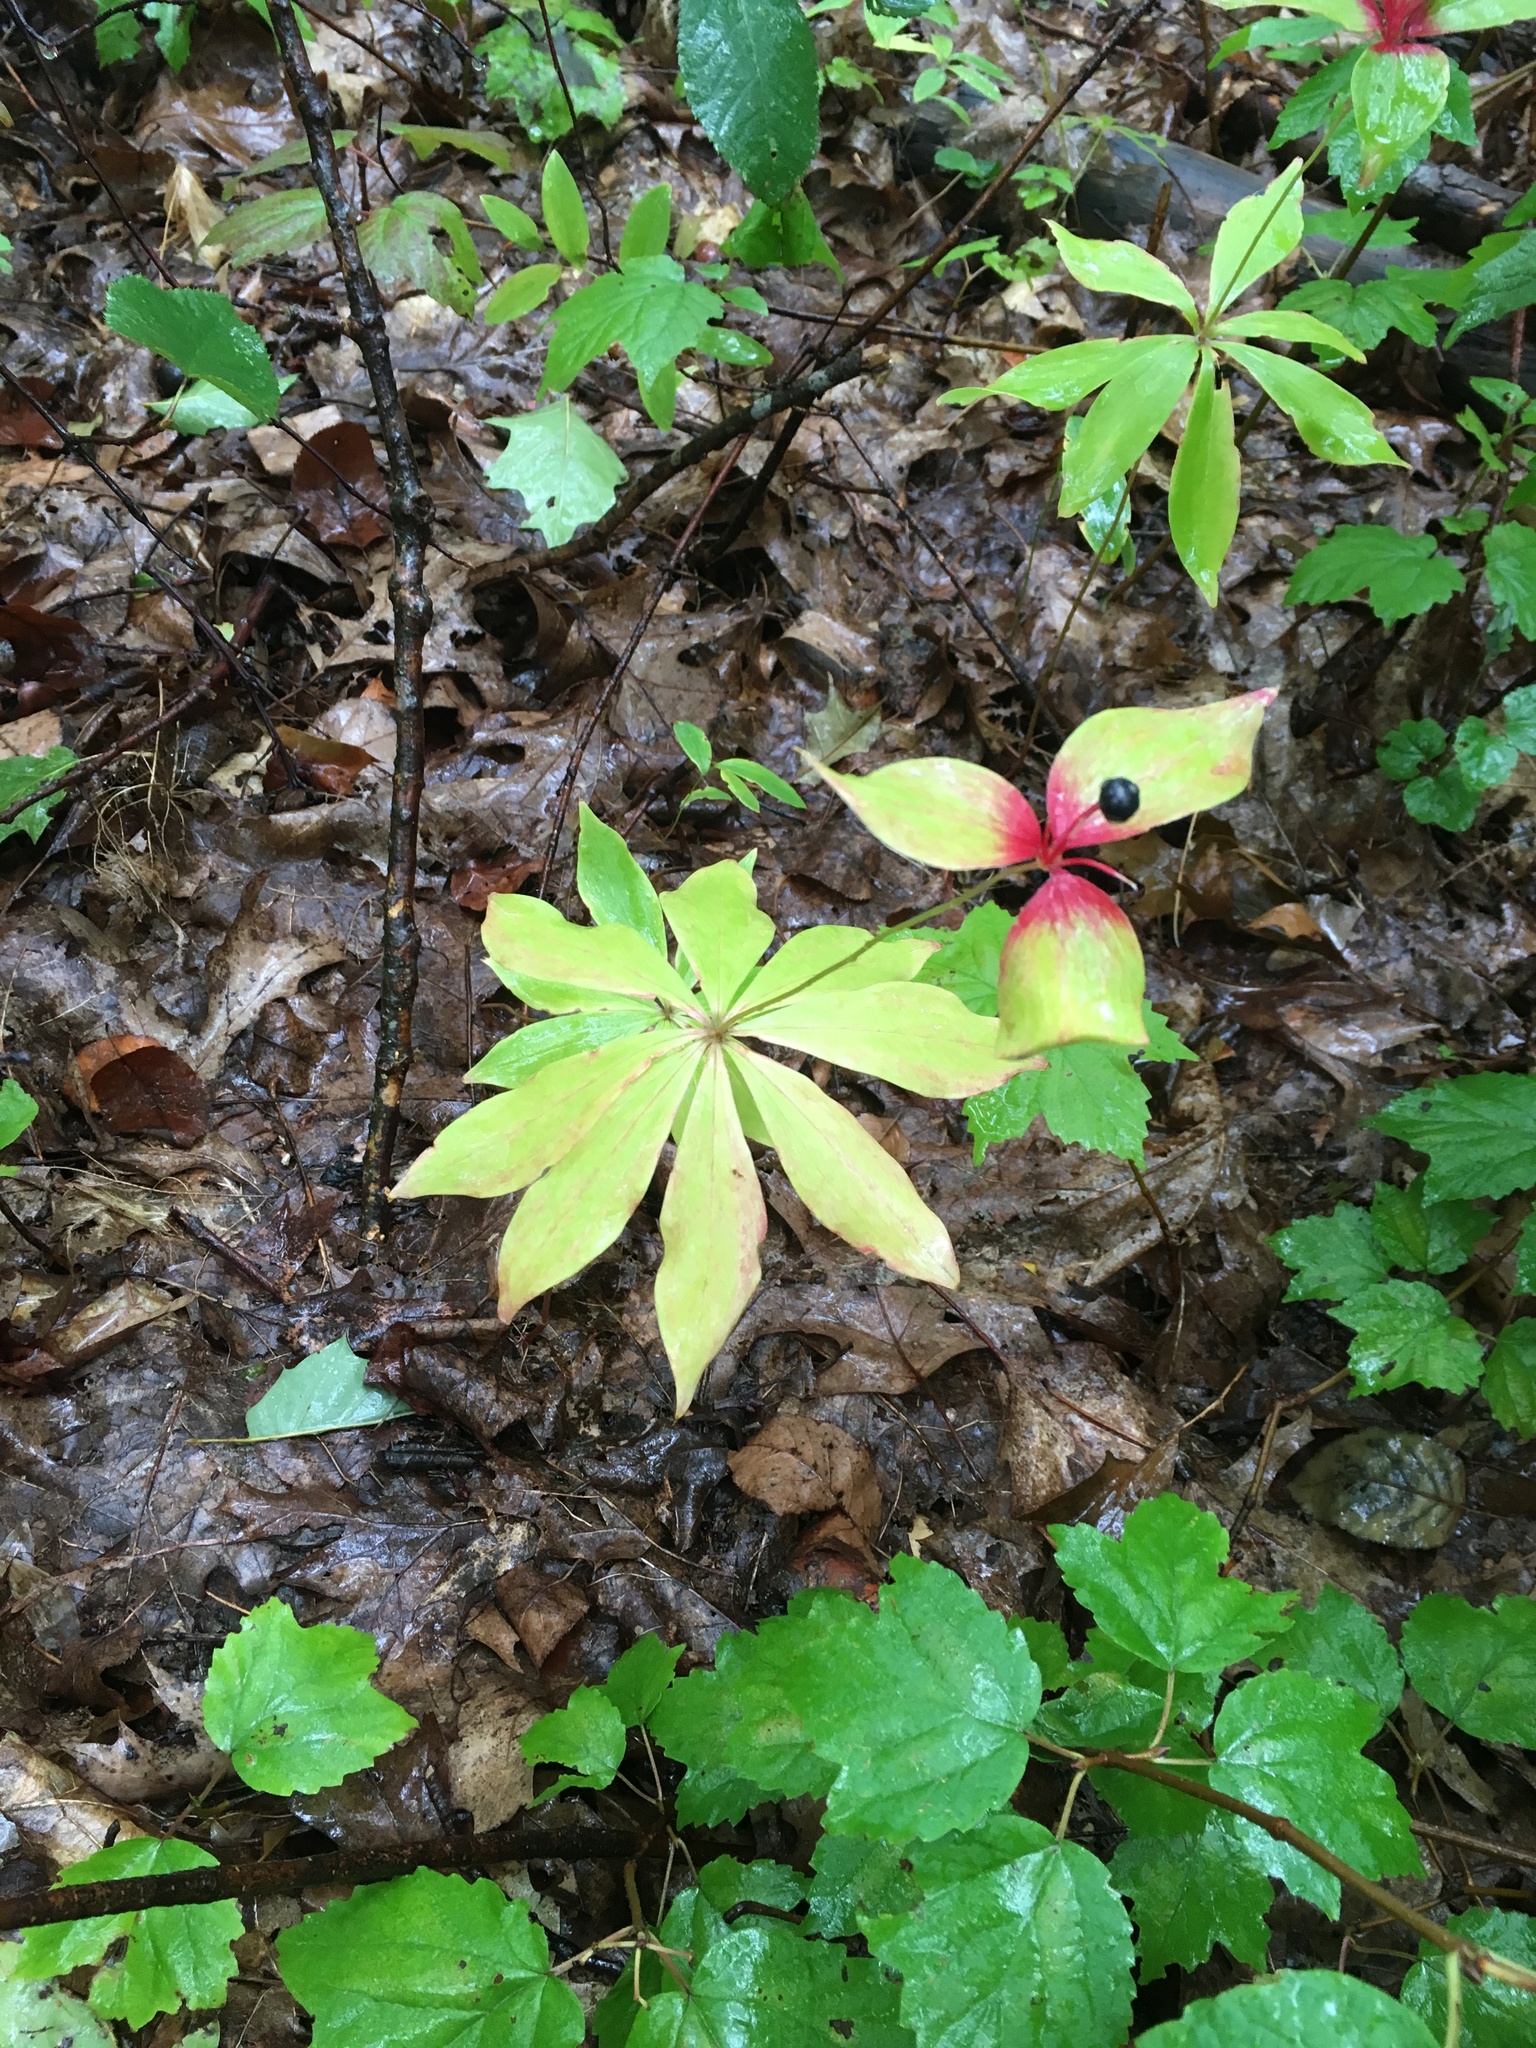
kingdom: Plantae
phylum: Tracheophyta
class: Liliopsida
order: Liliales
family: Liliaceae
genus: Medeola
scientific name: Medeola virginiana
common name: Indian cucumber-root
